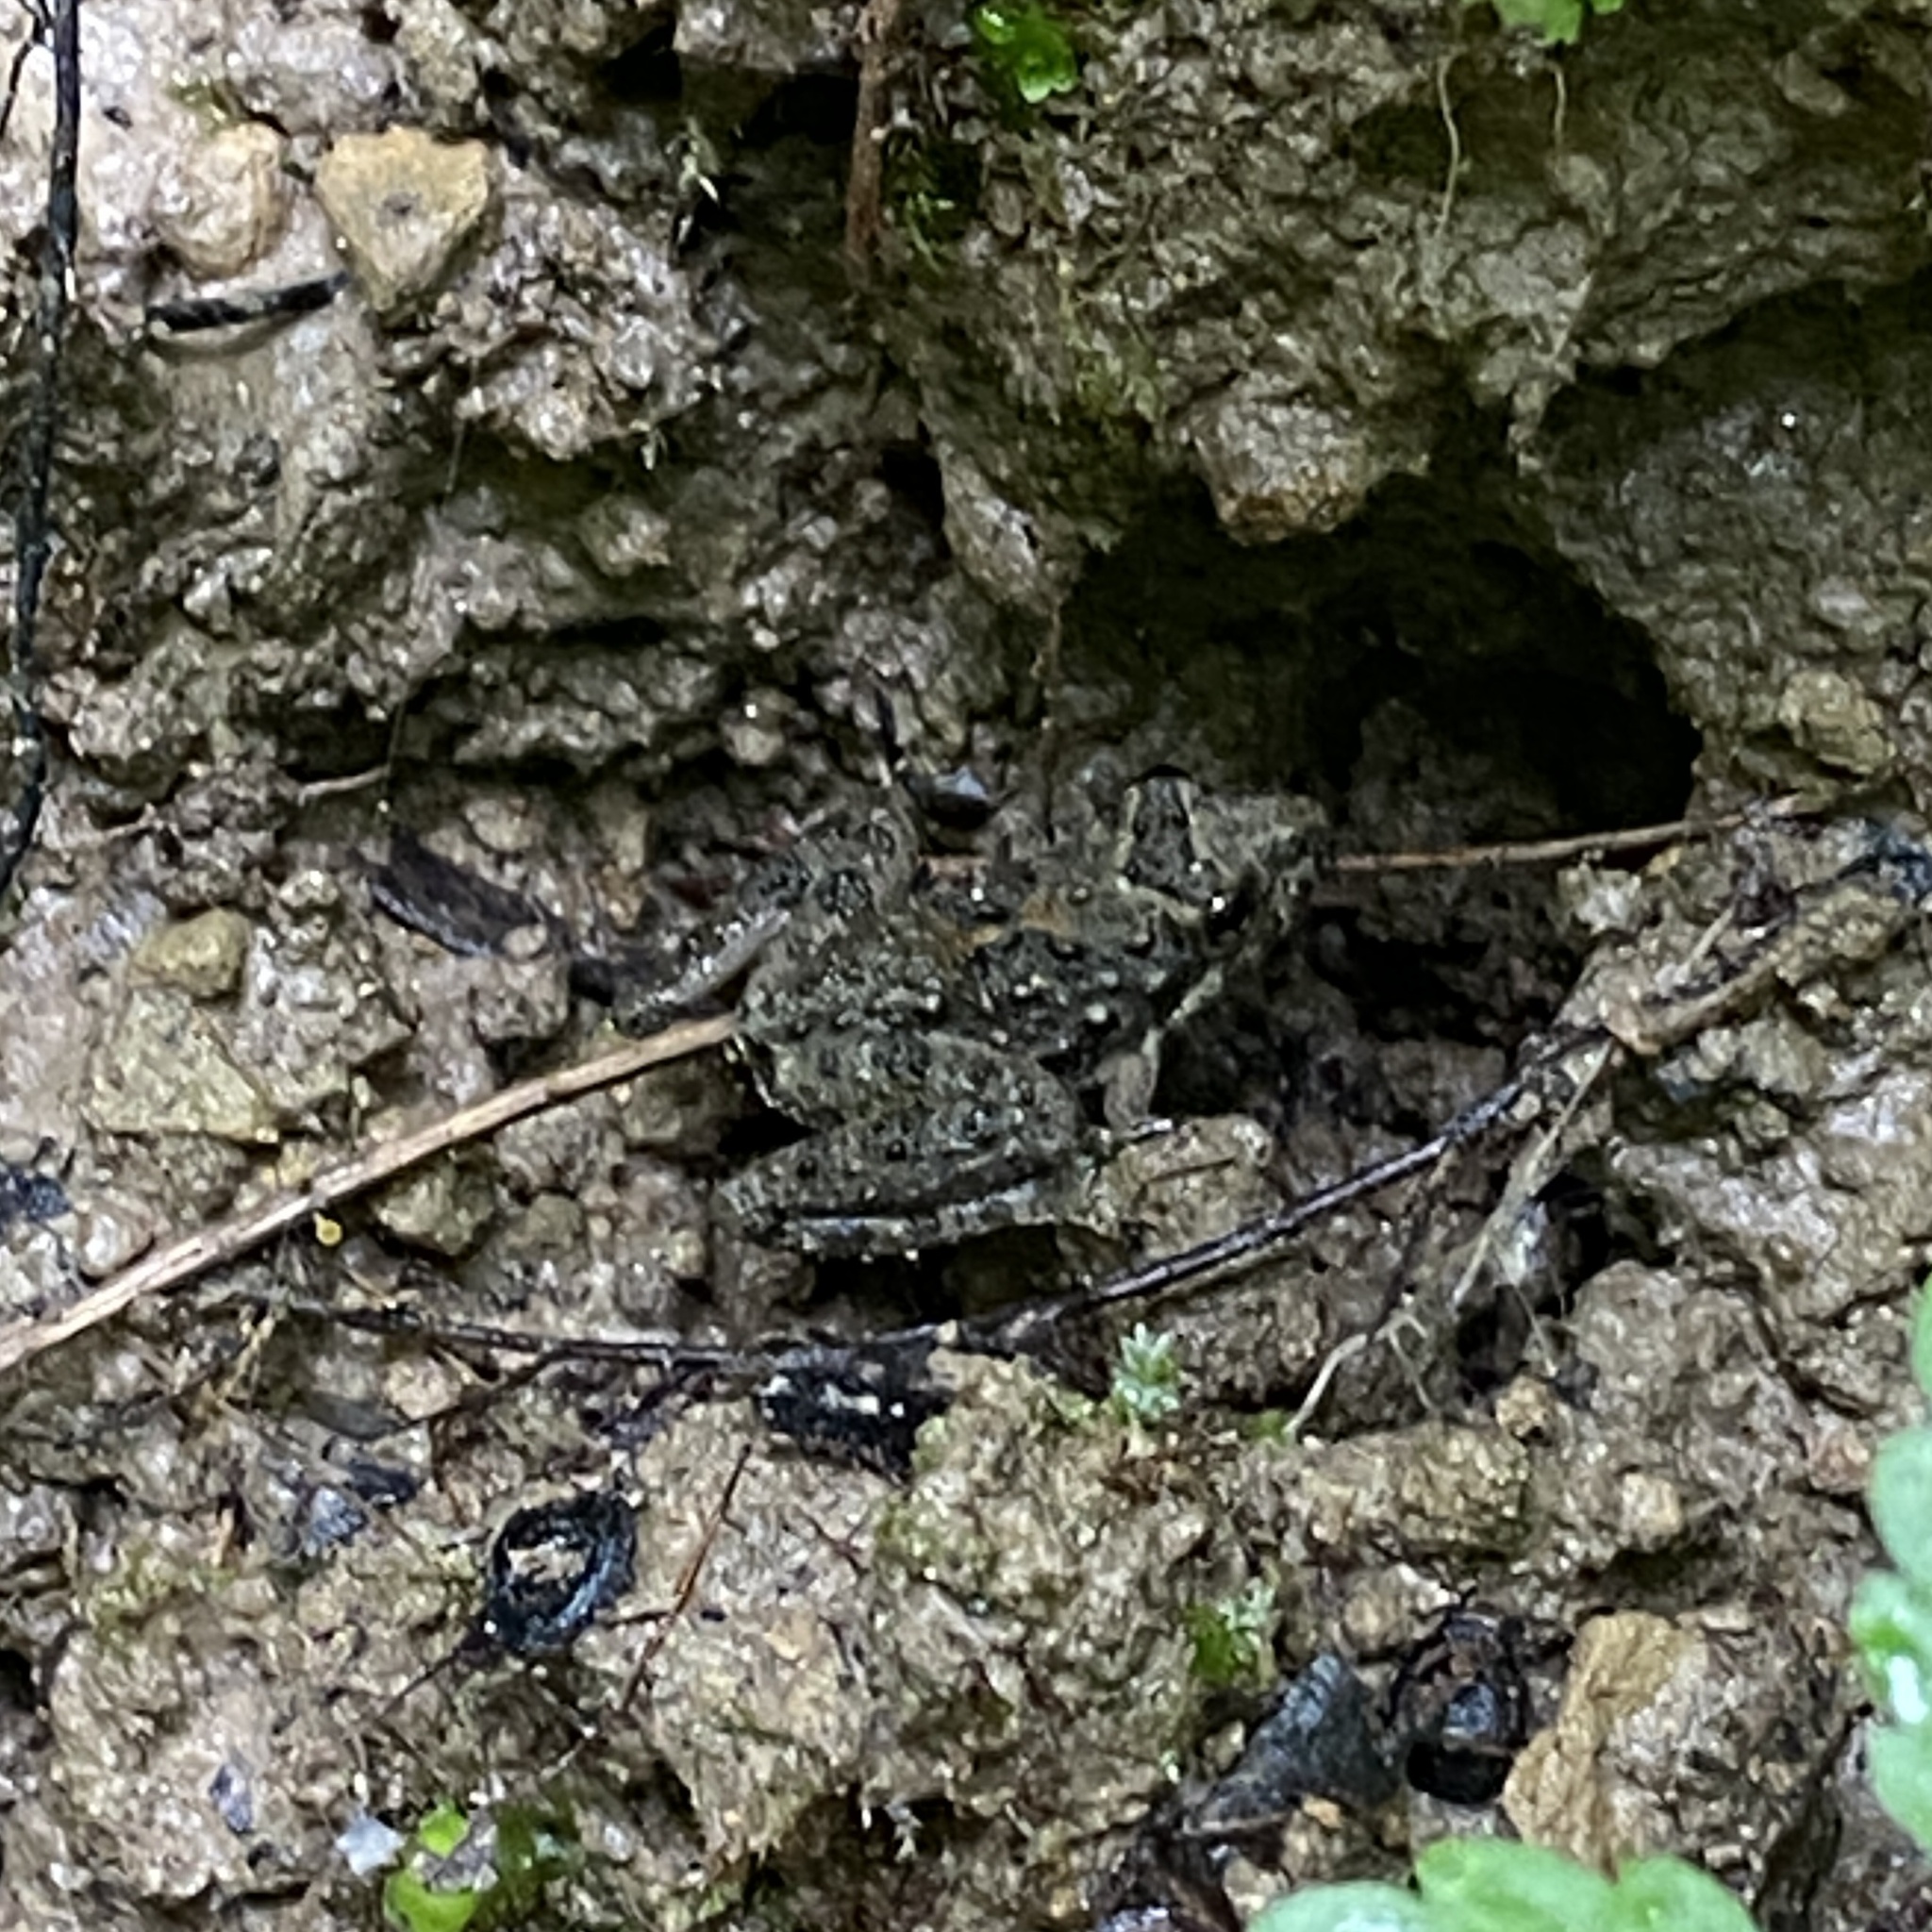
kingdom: Animalia
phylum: Chordata
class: Amphibia
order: Anura
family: Hylidae
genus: Acris
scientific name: Acris blanchardi
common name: Blanchard's cricket frog
